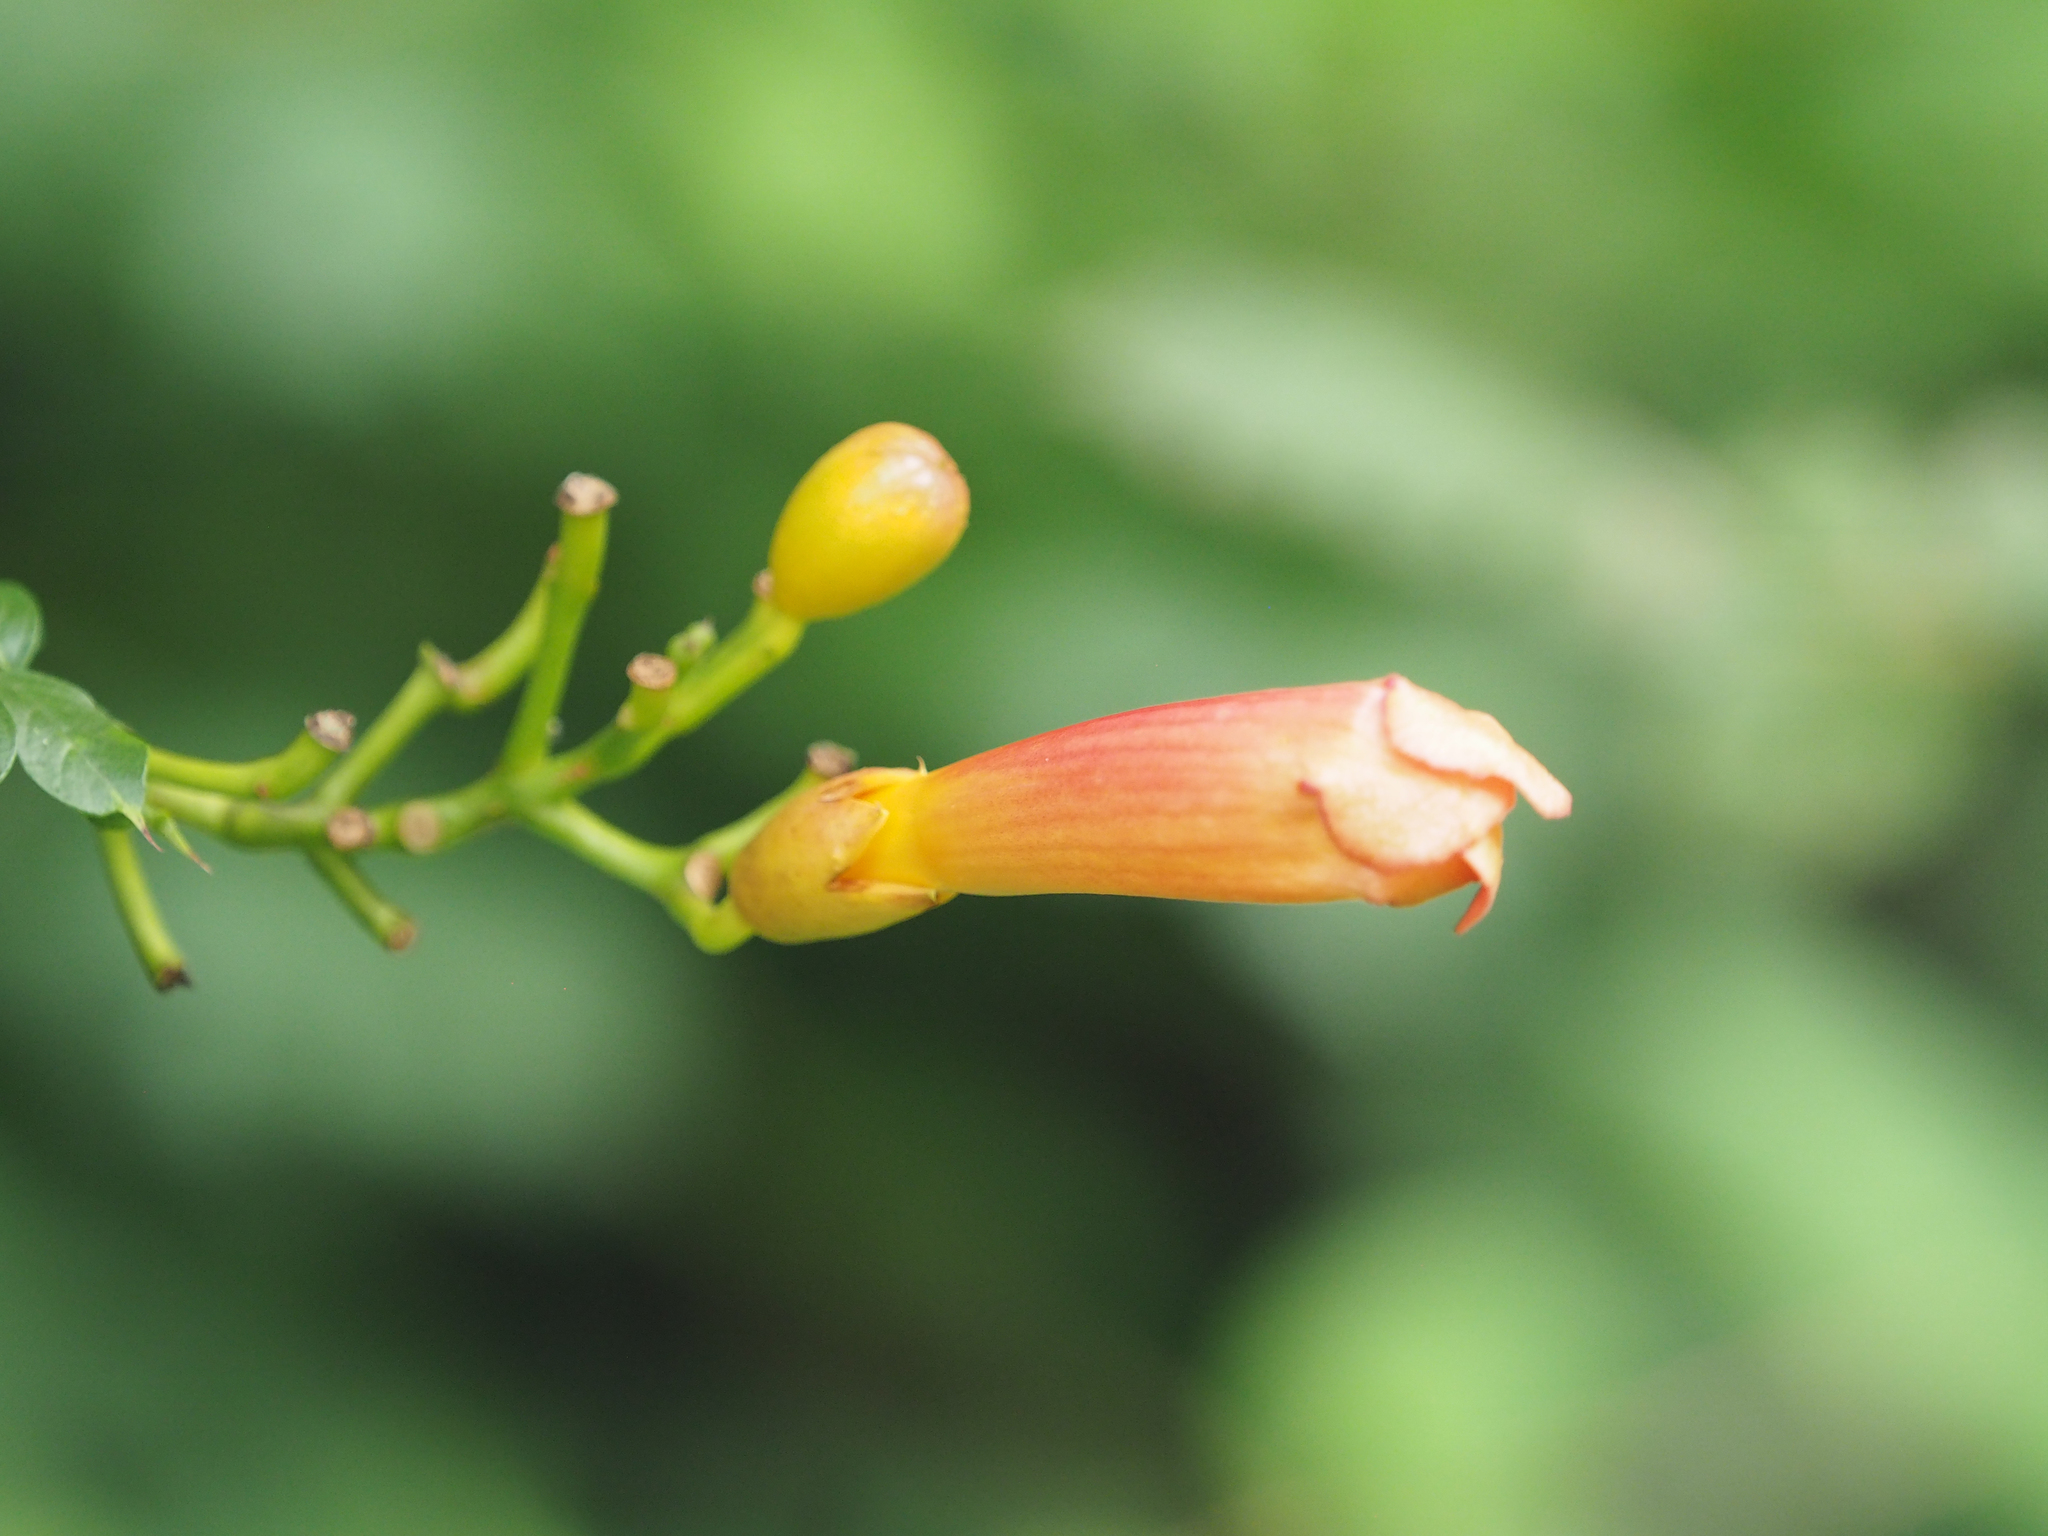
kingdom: Plantae
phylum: Tracheophyta
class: Magnoliopsida
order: Lamiales
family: Bignoniaceae
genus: Campsis
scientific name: Campsis radicans
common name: Trumpet-creeper
